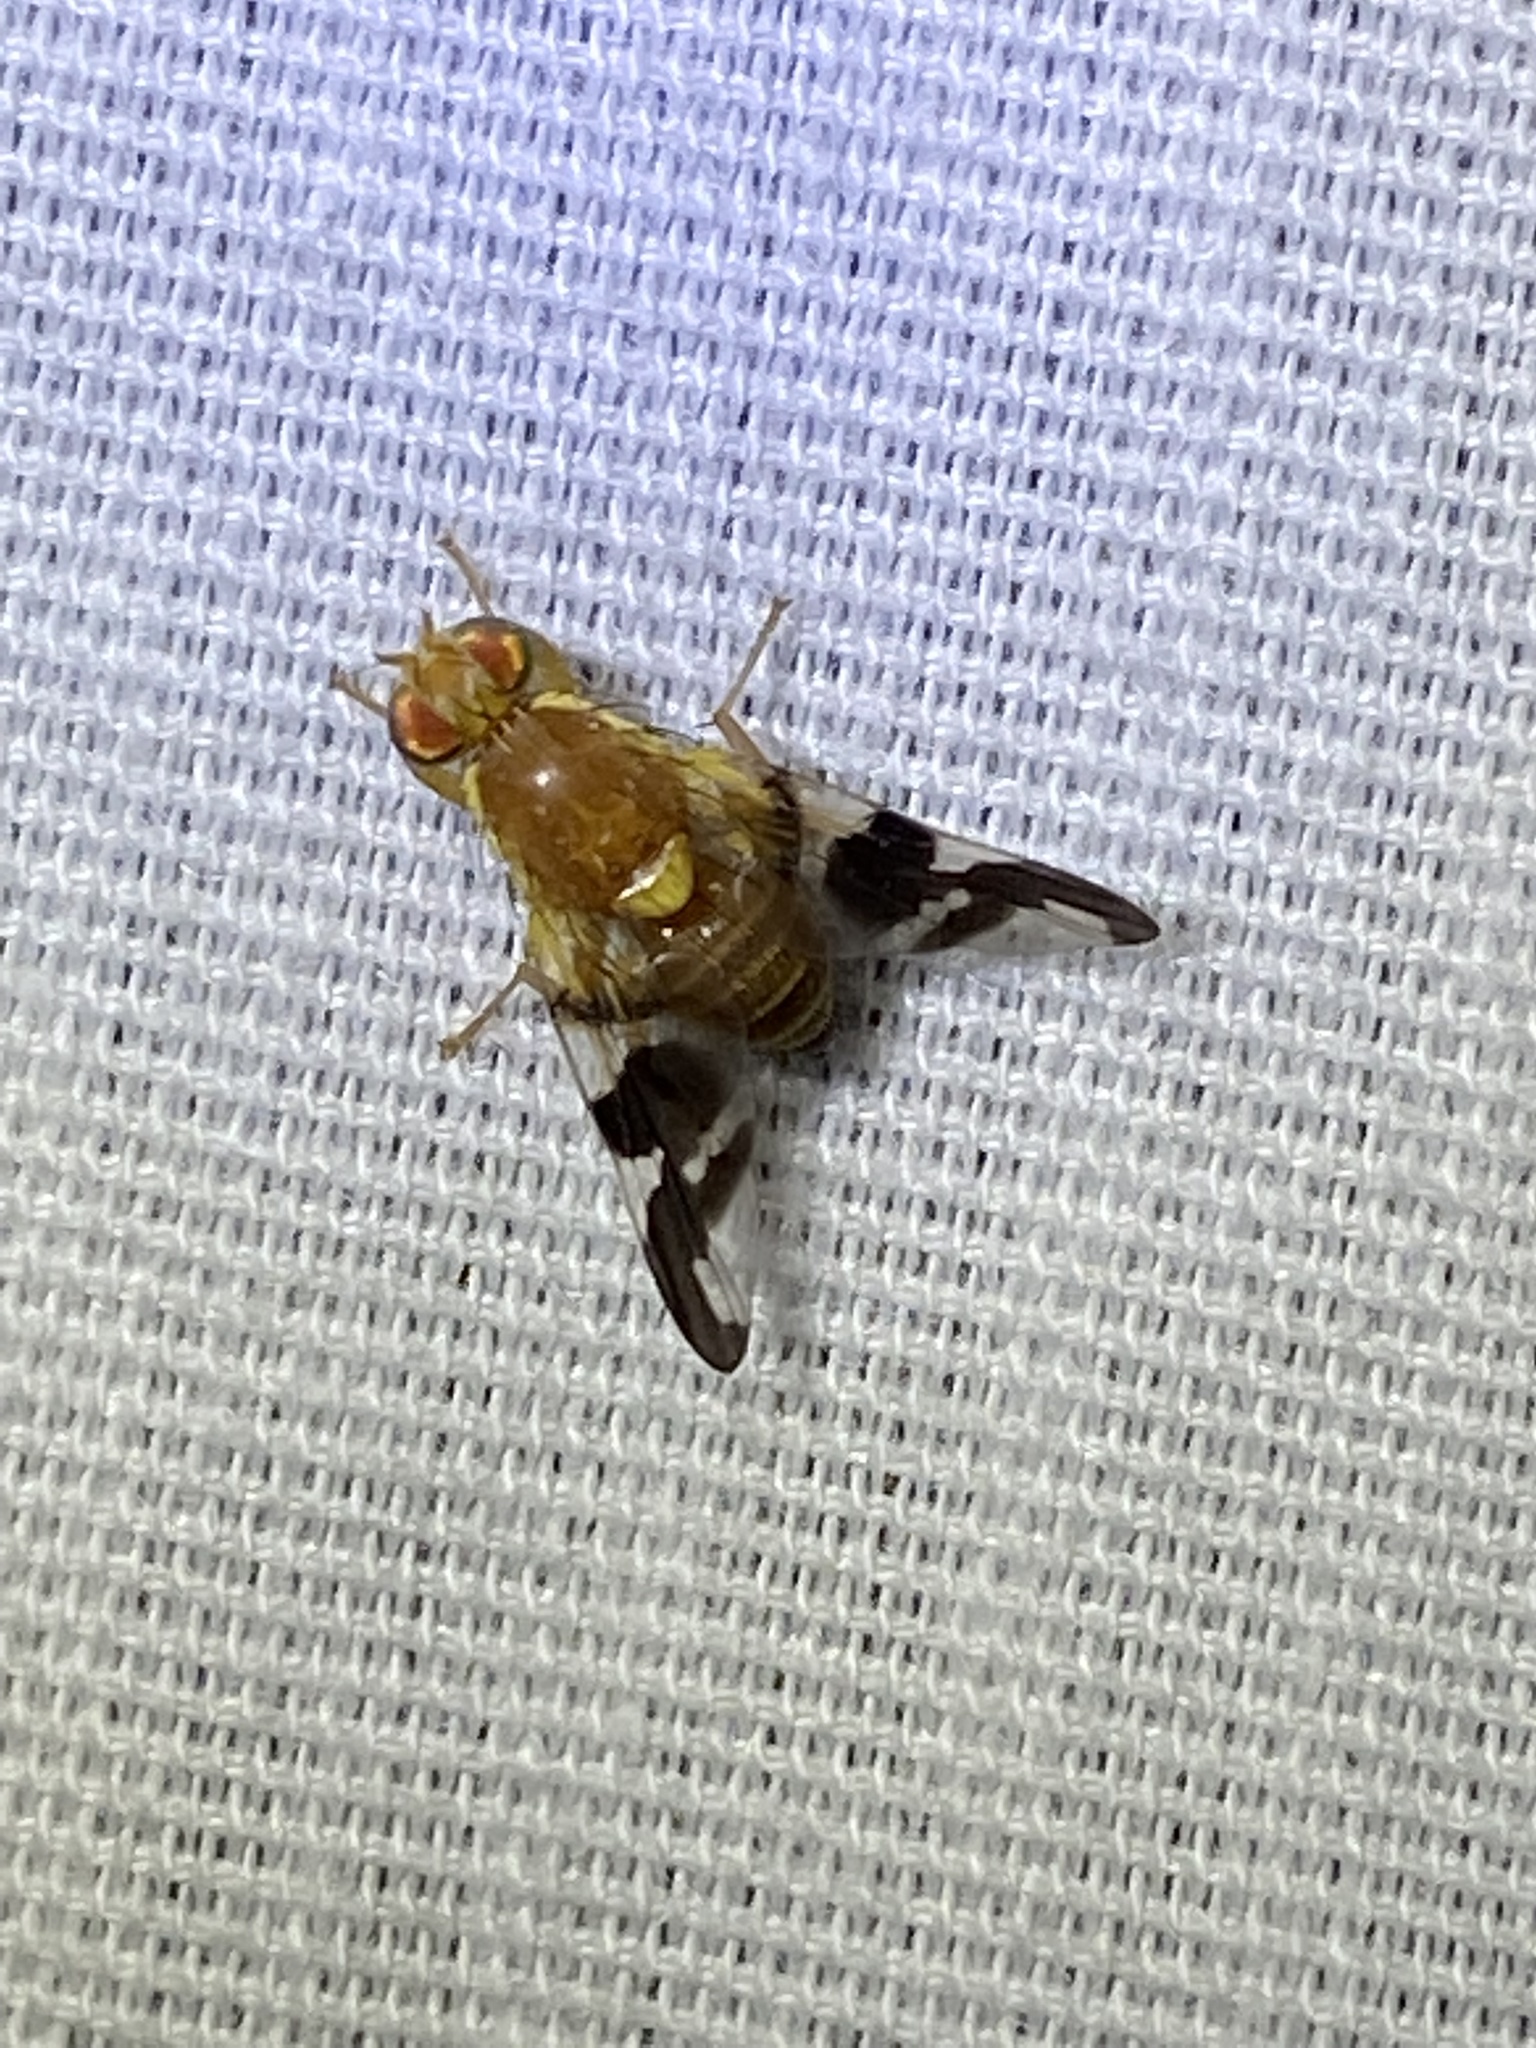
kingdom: Animalia
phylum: Arthropoda
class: Insecta
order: Diptera
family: Tephritidae
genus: Rhagoletis
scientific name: Rhagoletis suavis
